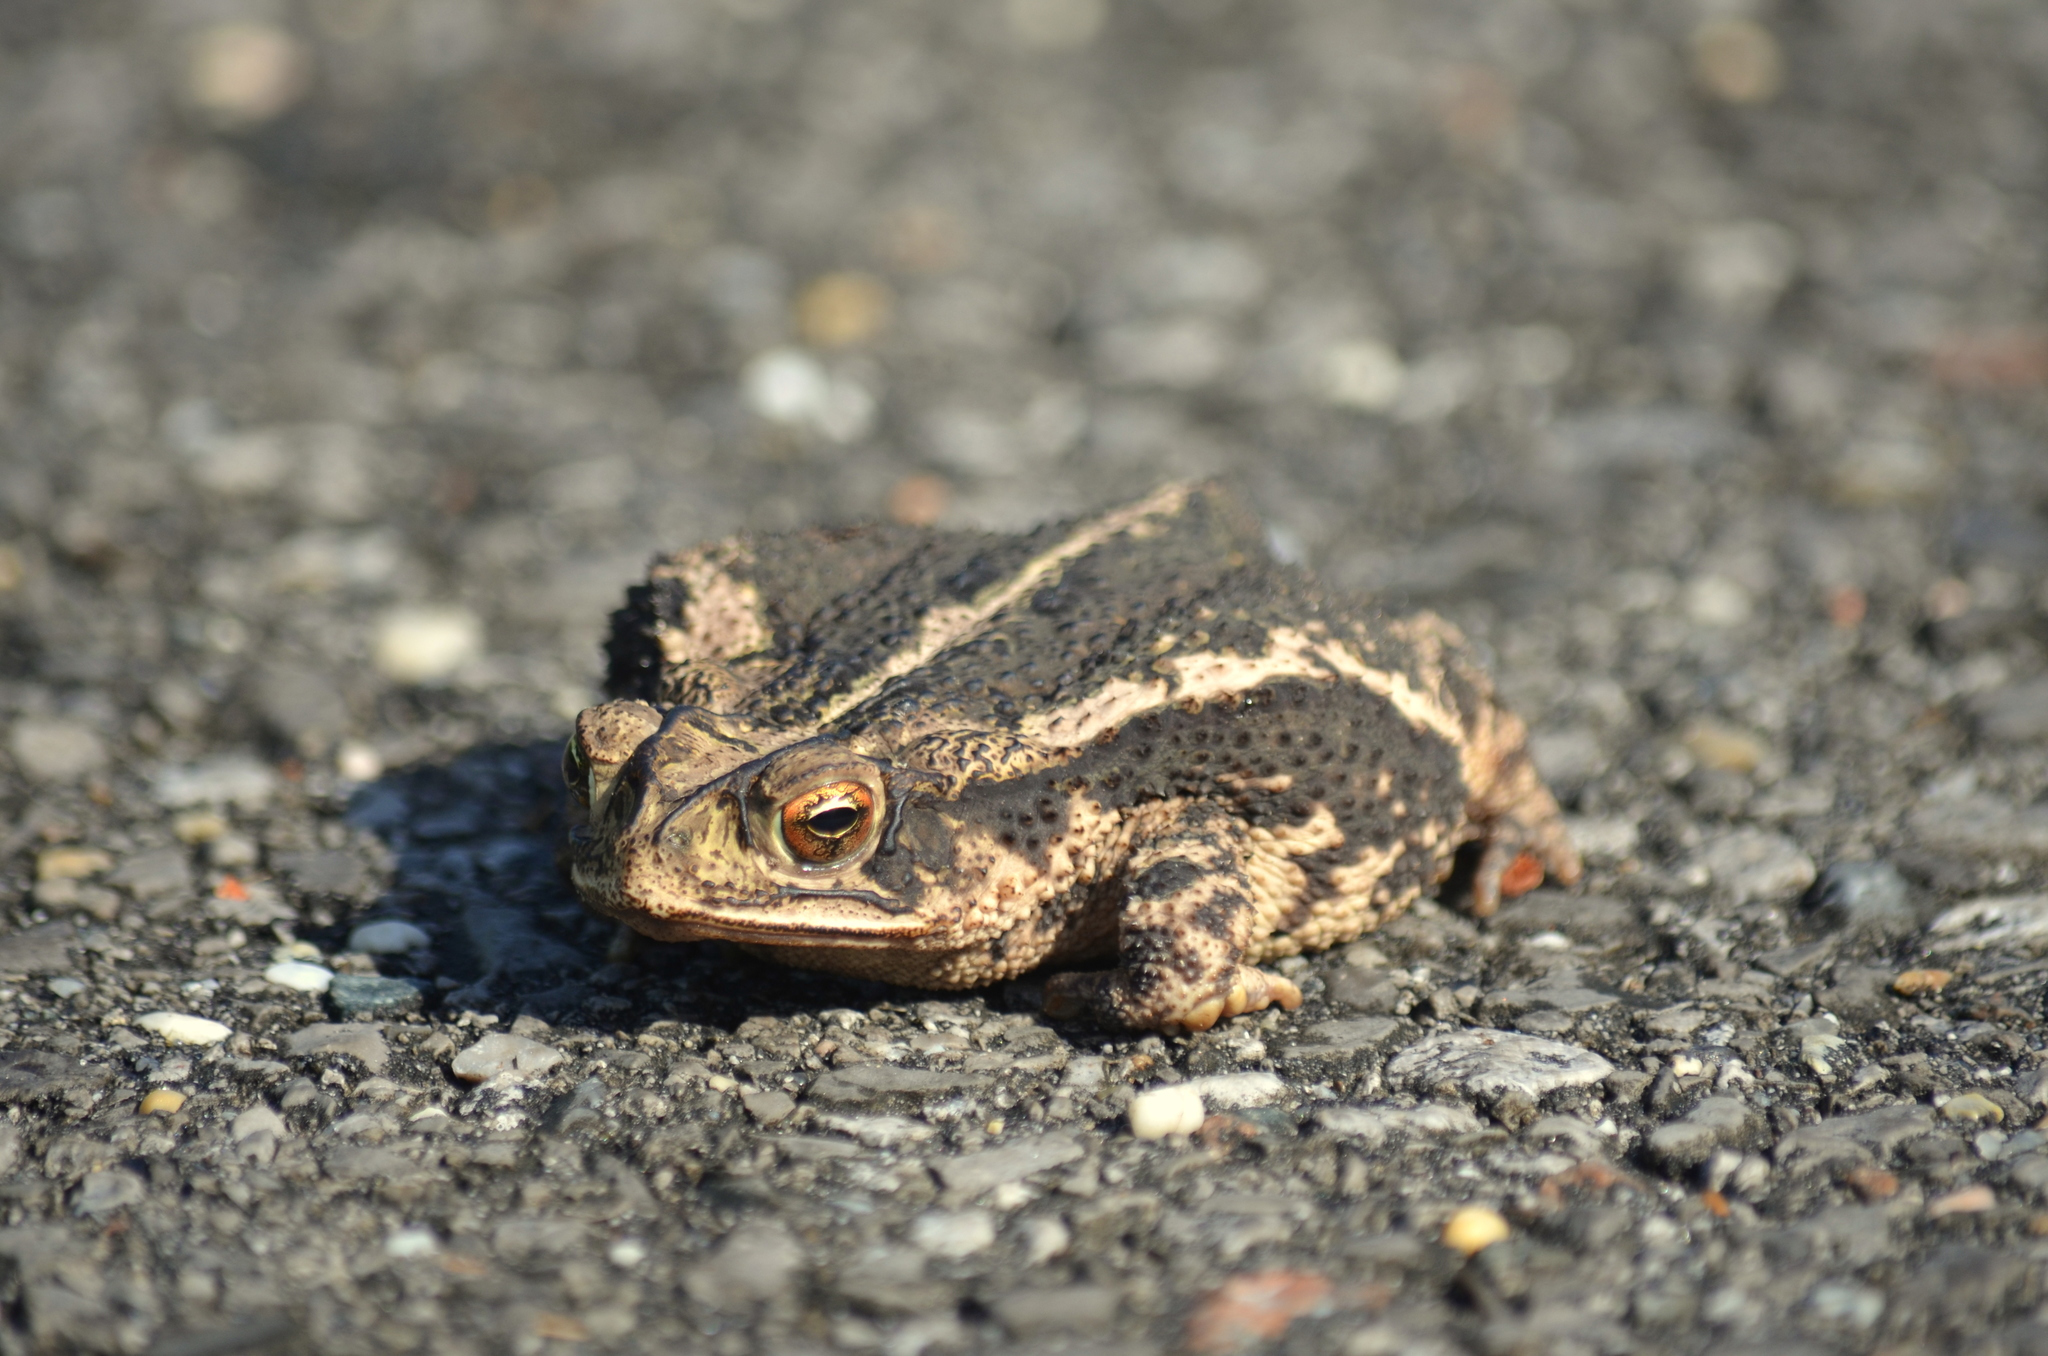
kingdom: Animalia
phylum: Chordata
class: Amphibia
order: Anura
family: Bufonidae
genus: Incilius
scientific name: Incilius nebulifer
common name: Gulf coast toad
